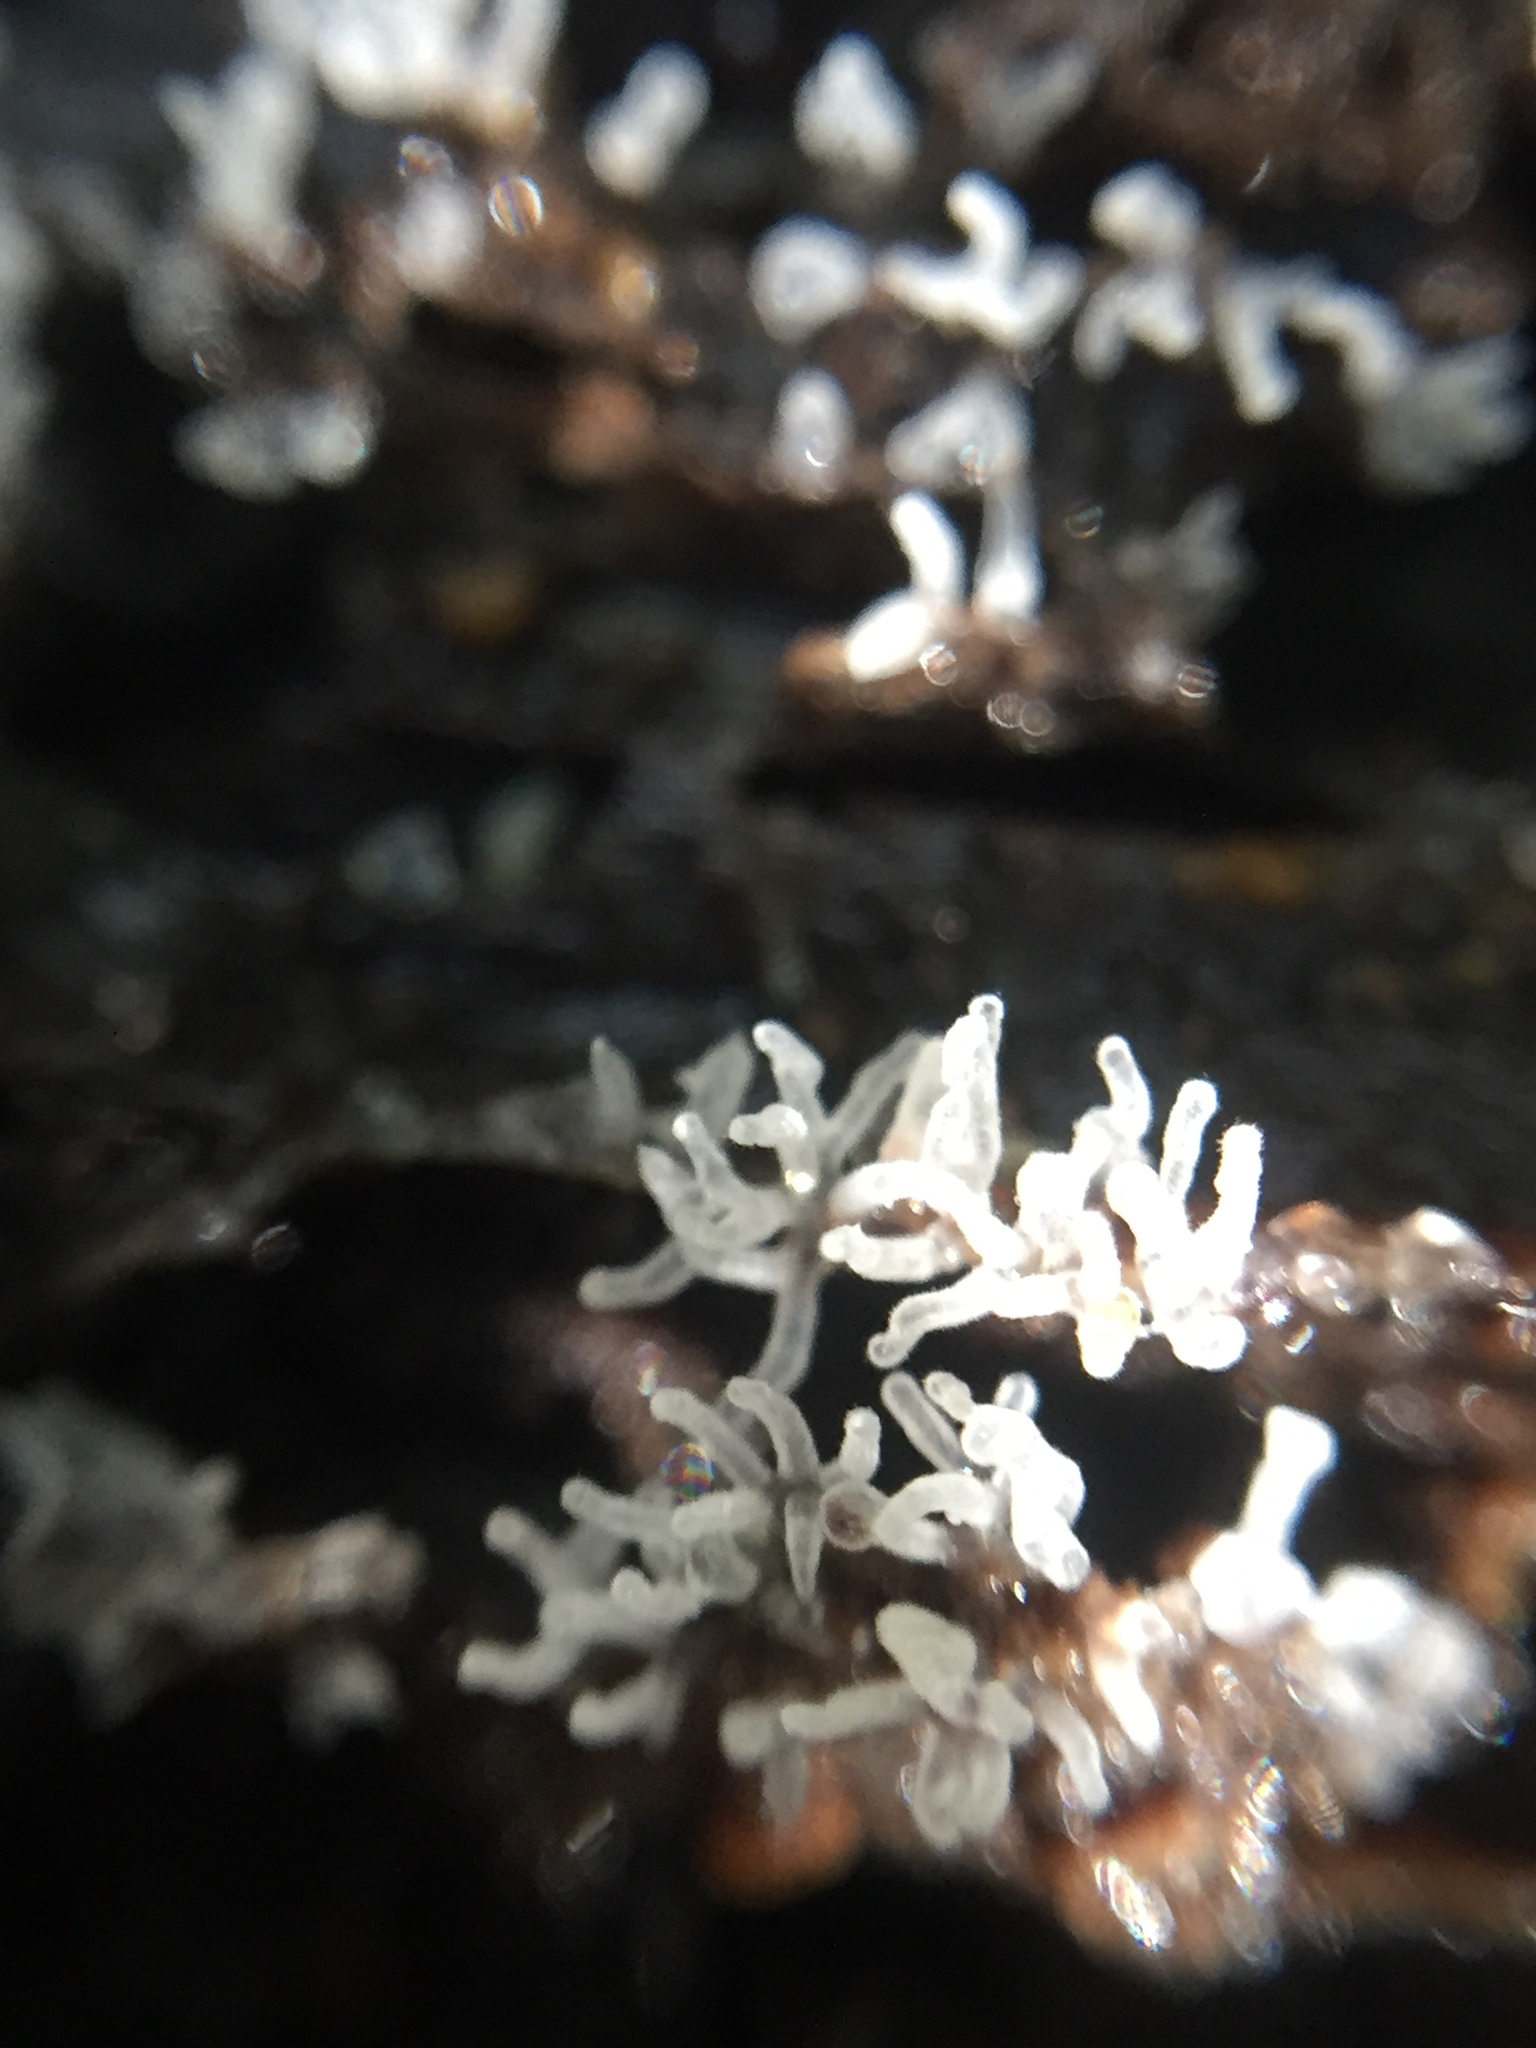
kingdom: Protozoa
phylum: Mycetozoa
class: Protosteliomycetes
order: Ceratiomyxales
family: Ceratiomyxaceae
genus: Ceratiomyxa
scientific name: Ceratiomyxa fruticulosa
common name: Honeycomb coral slime mold
